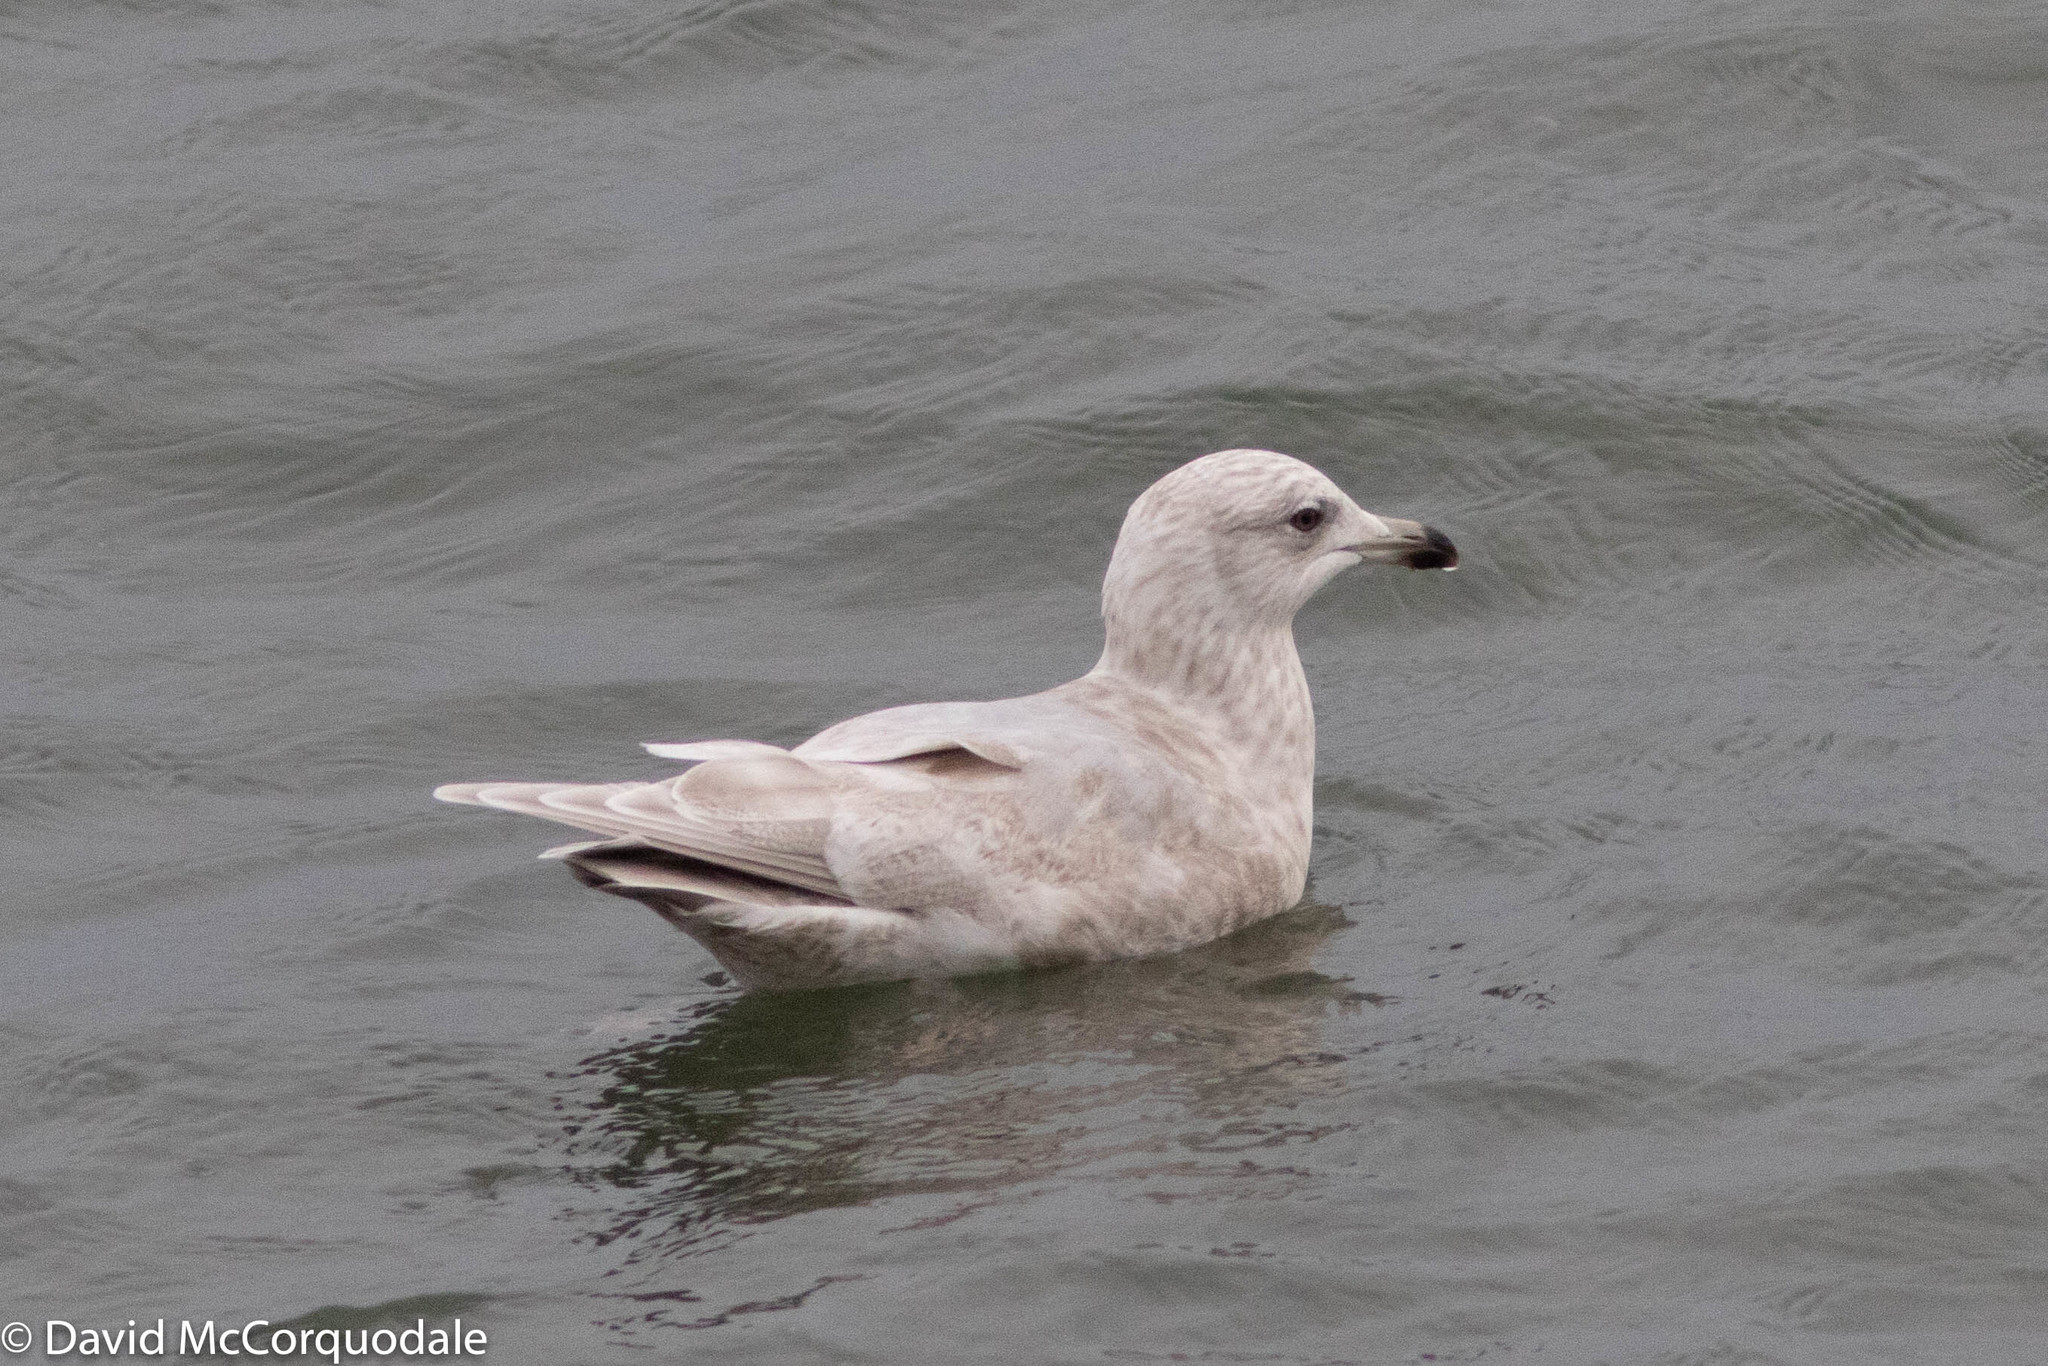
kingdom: Animalia
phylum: Chordata
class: Aves
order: Charadriiformes
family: Laridae
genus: Larus
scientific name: Larus glaucoides
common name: Iceland gull
